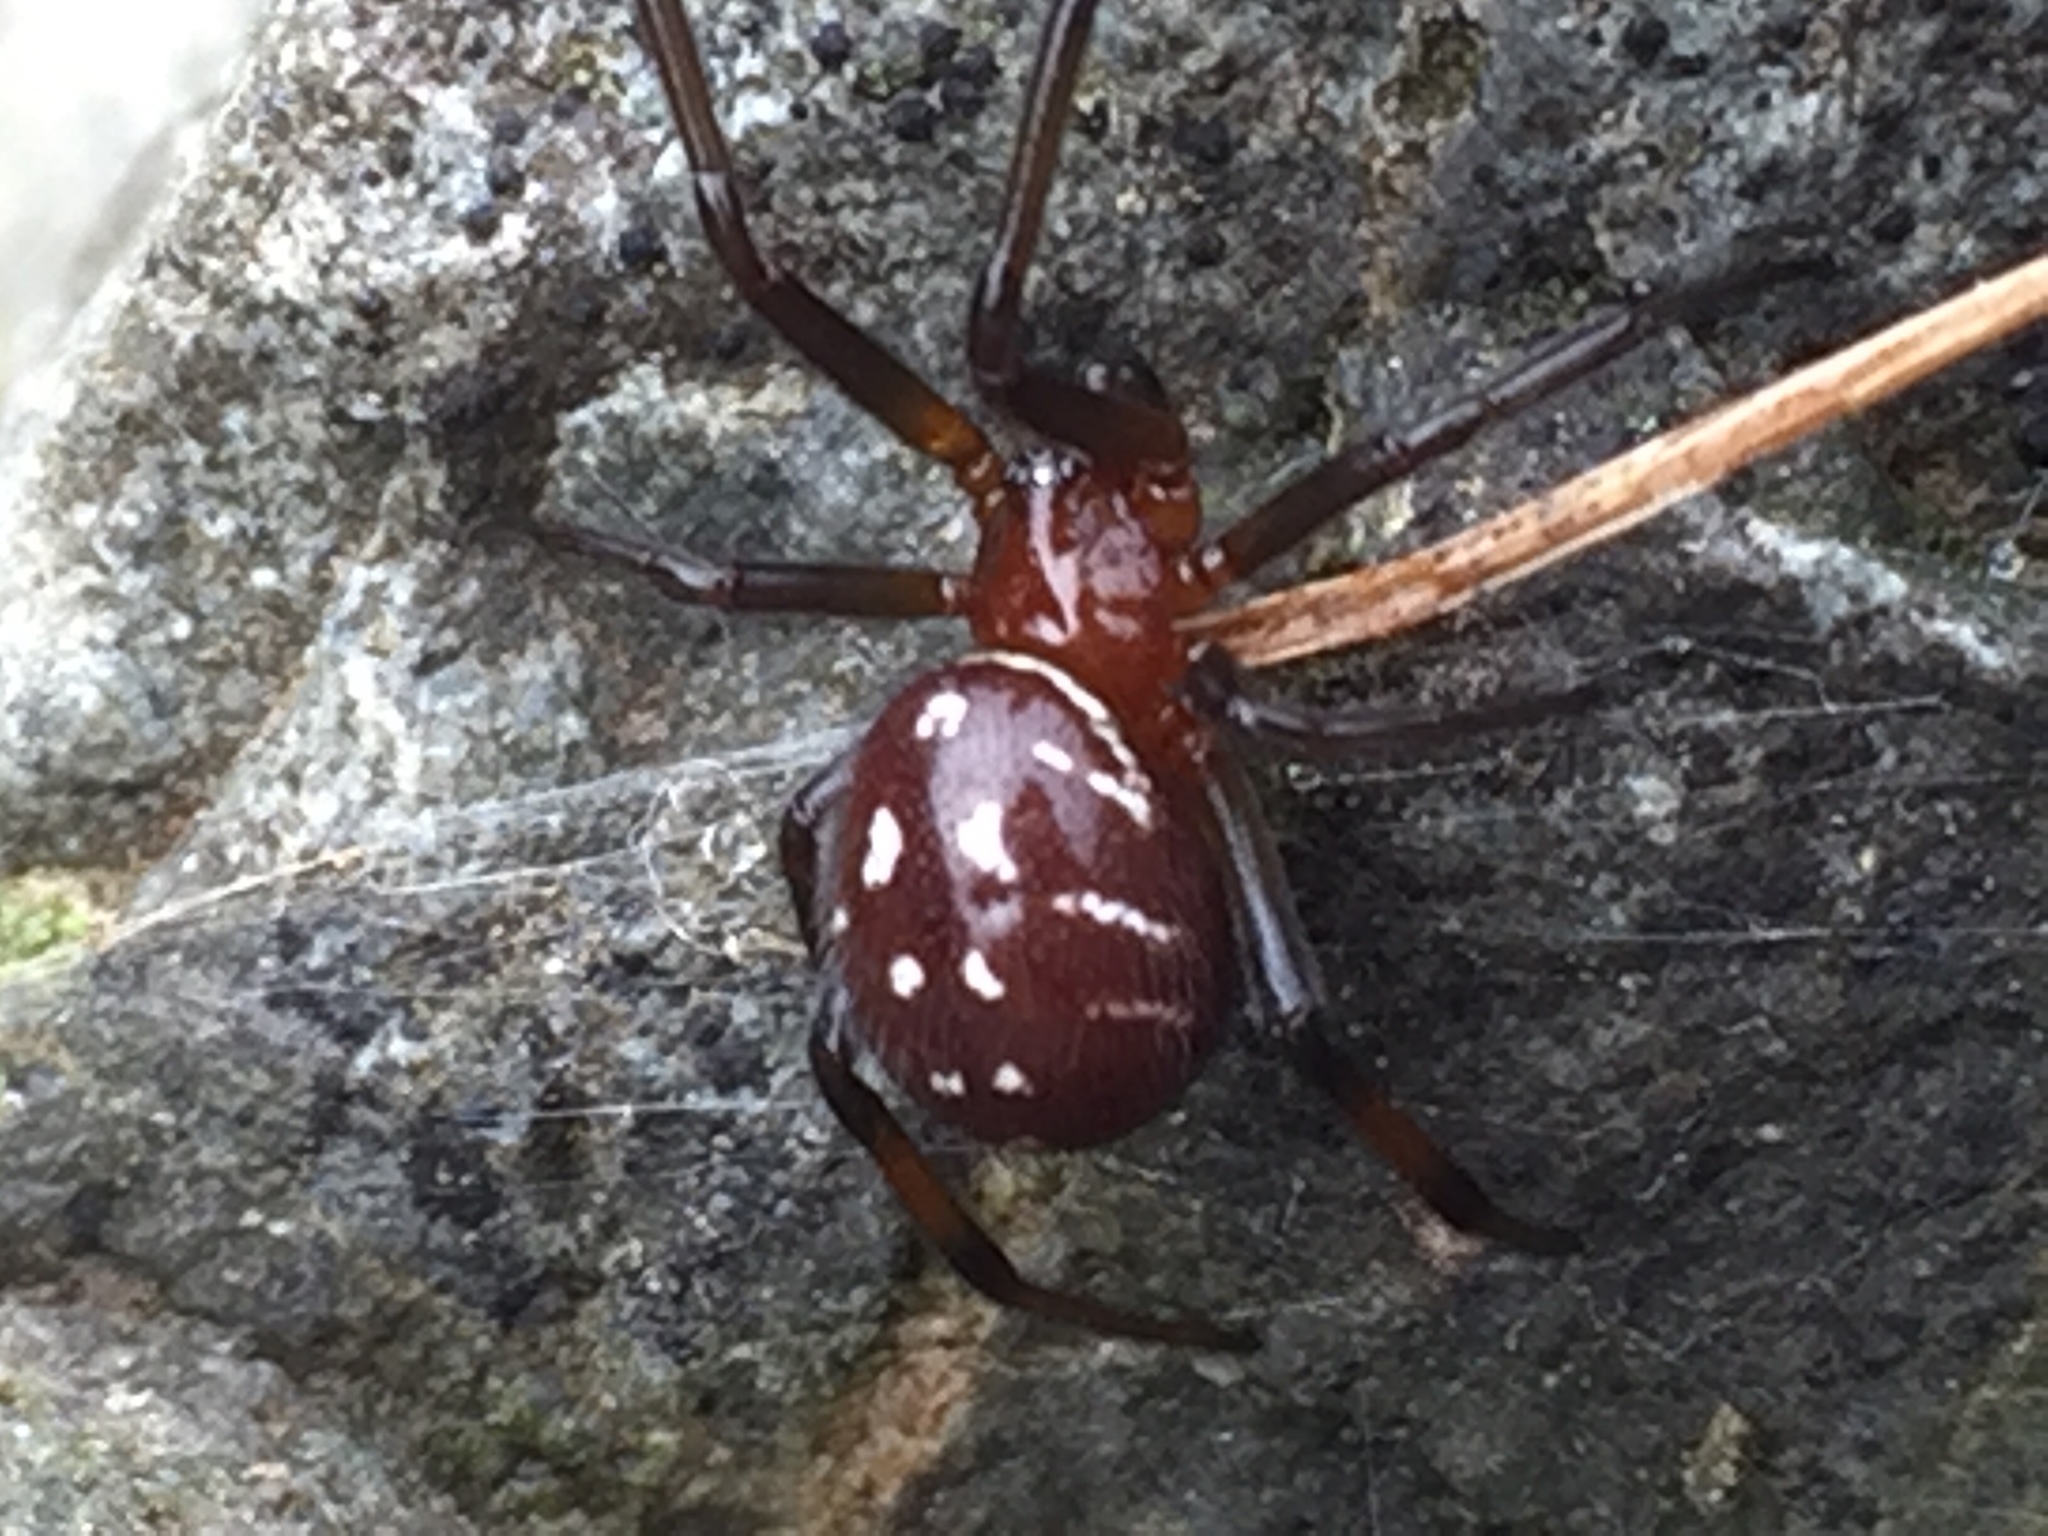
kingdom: Animalia
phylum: Arthropoda
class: Arachnida
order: Araneae
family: Theridiidae
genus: Steatoda
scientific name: Steatoda capensis
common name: Cobweb weaver
